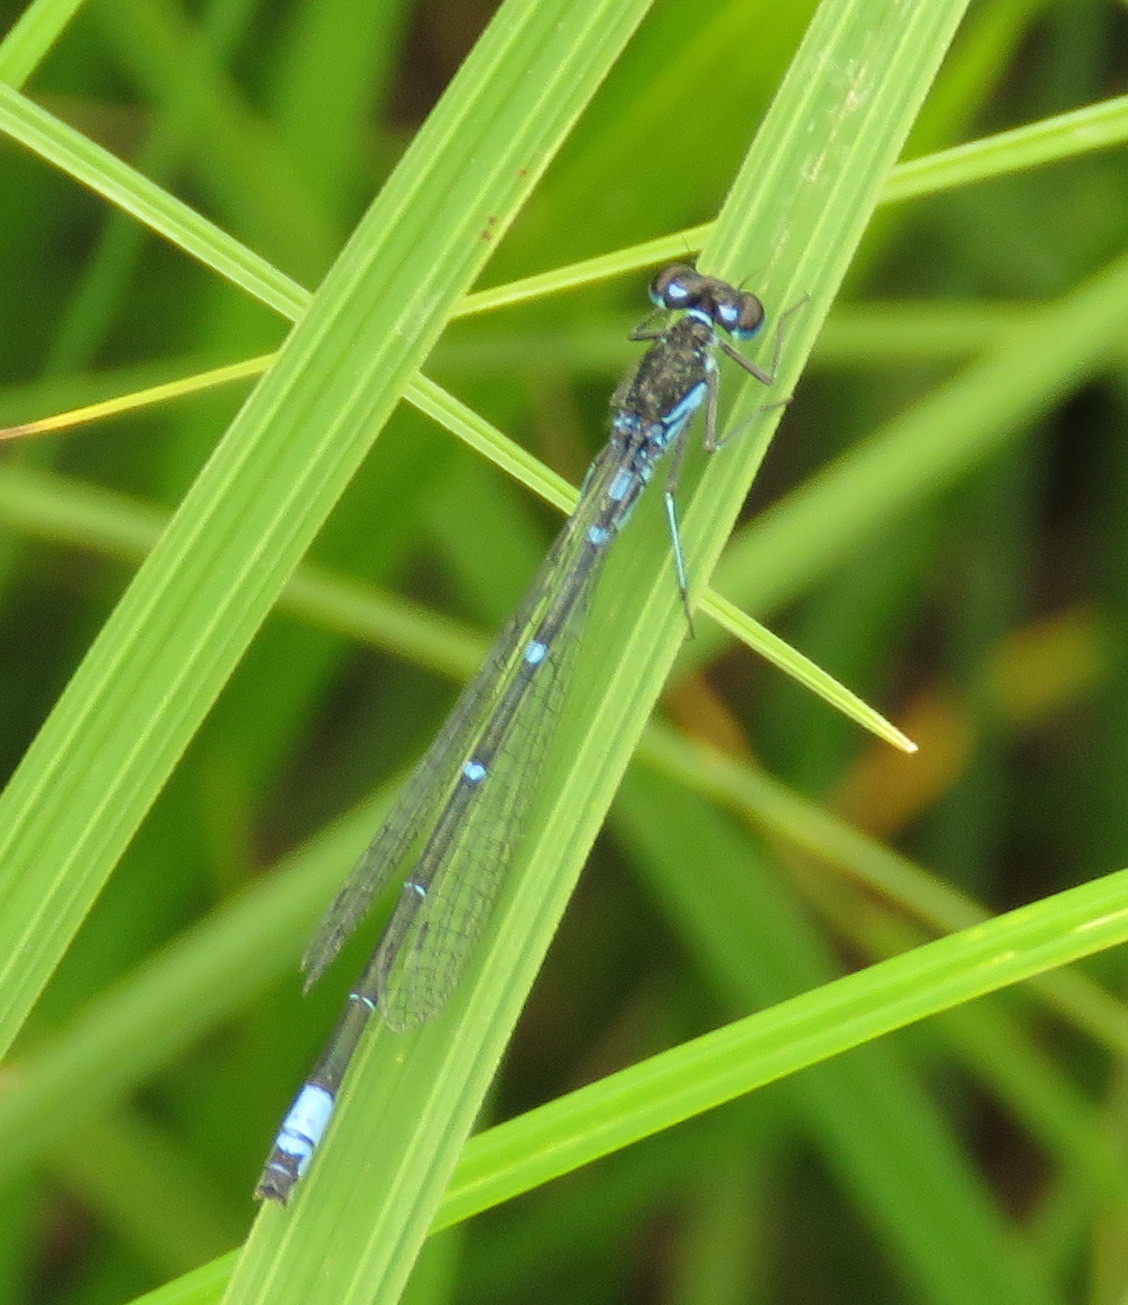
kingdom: Animalia
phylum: Arthropoda
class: Insecta
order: Odonata
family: Coenagrionidae
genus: Coenagrion
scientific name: Coenagrion pulchellum
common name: Variable bluet
